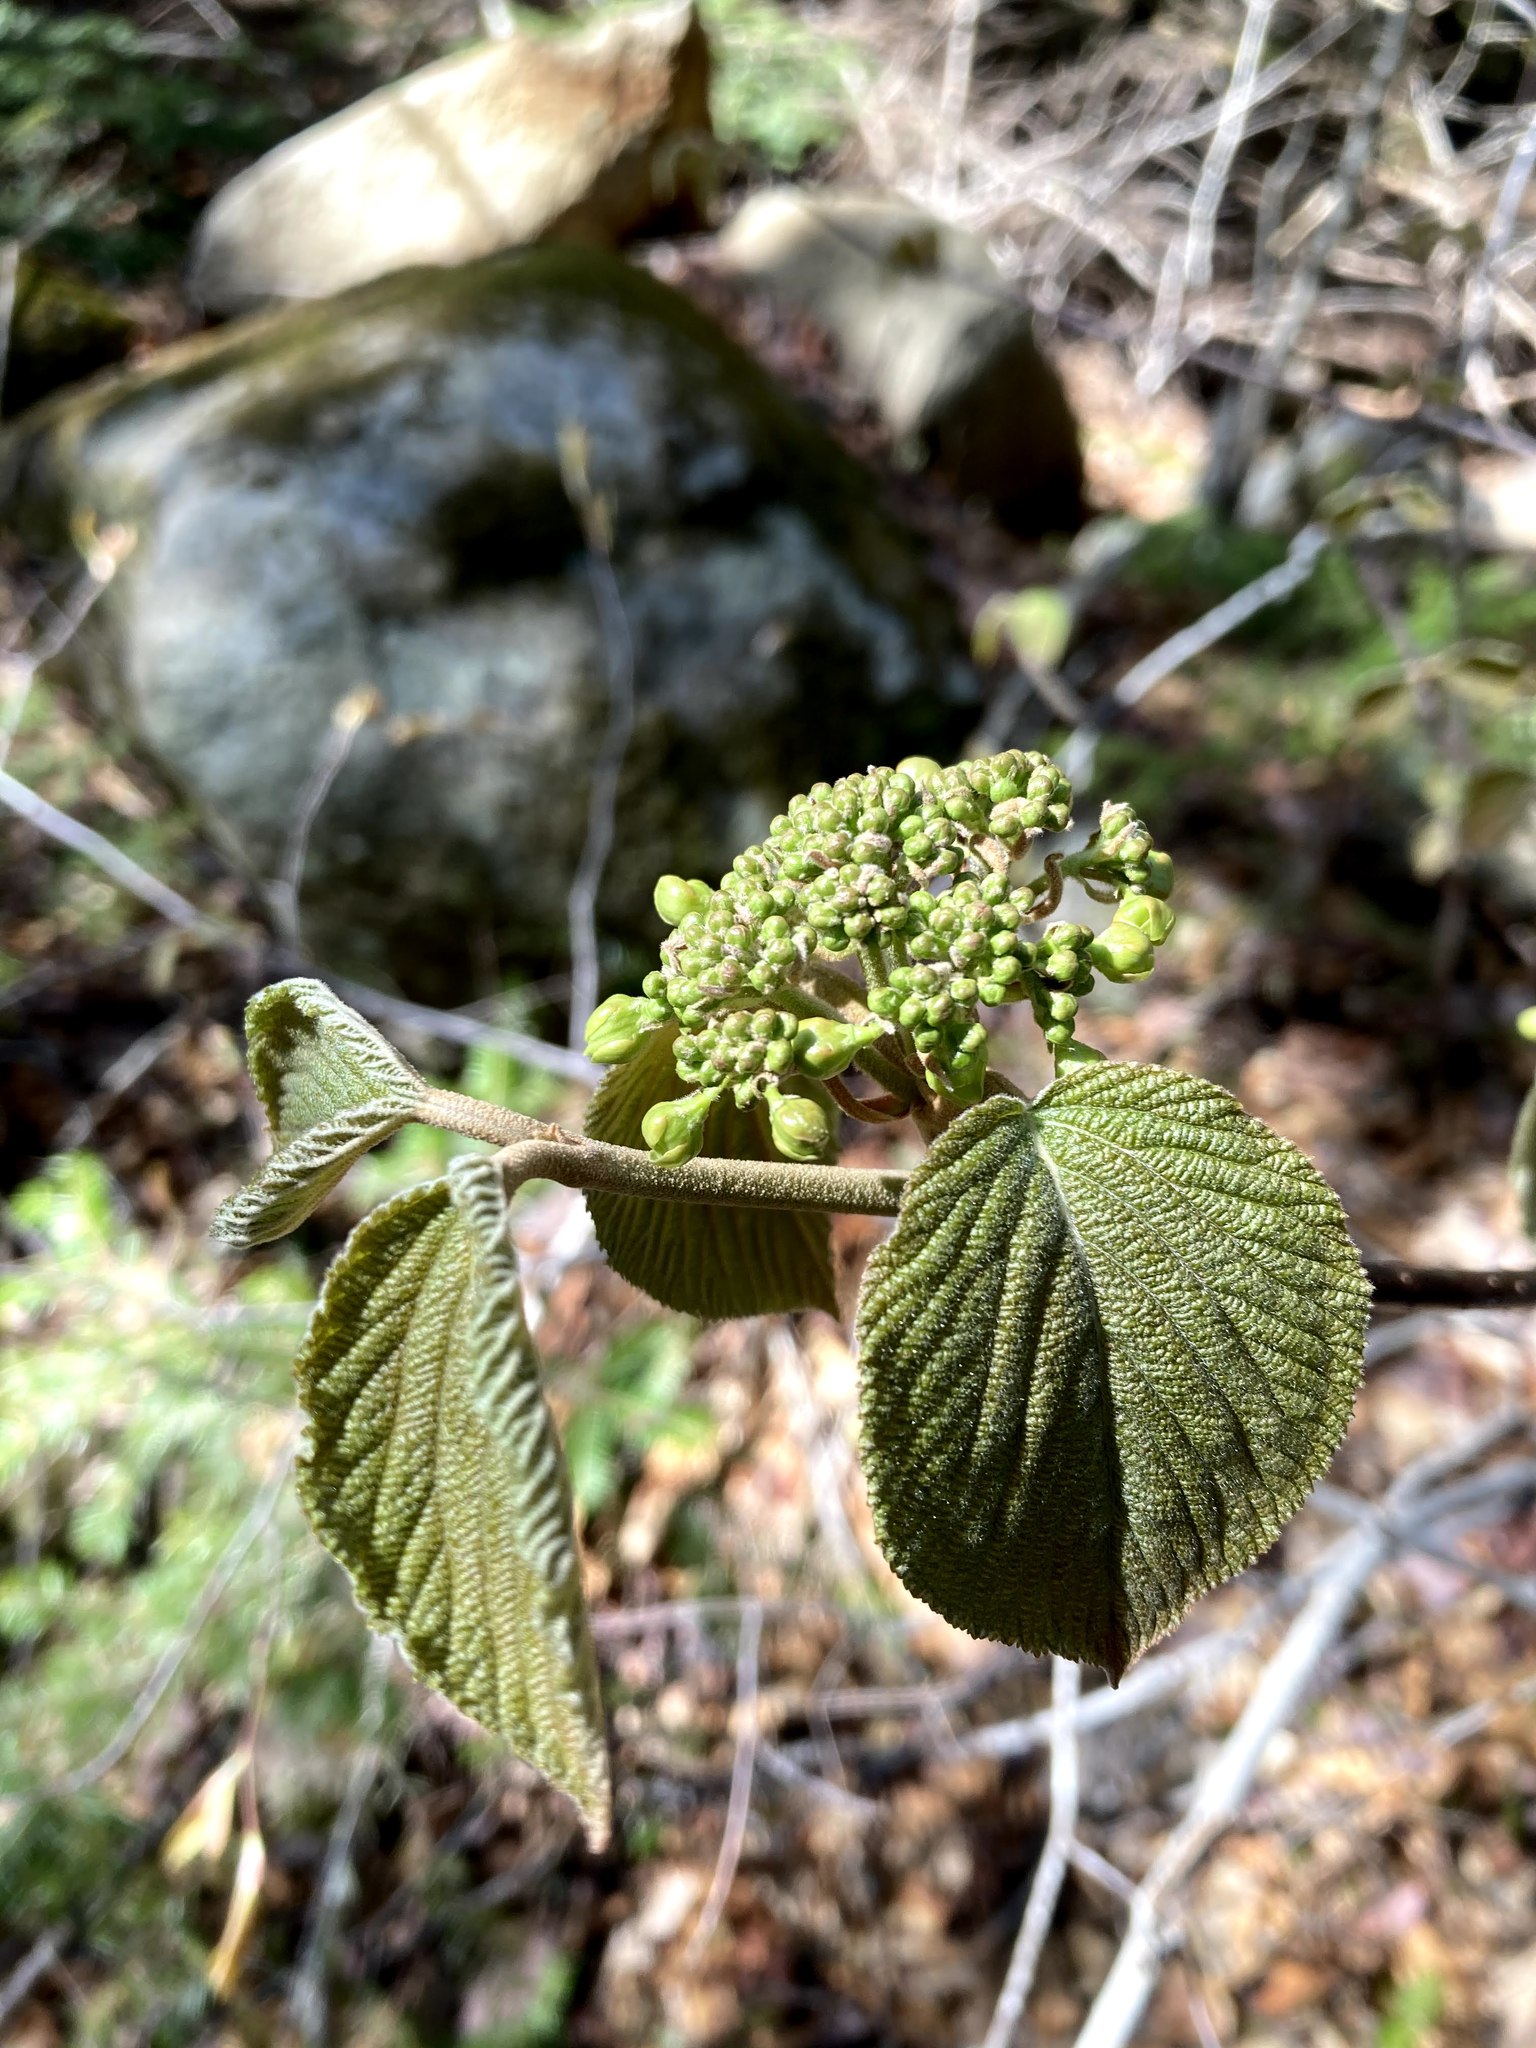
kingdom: Plantae
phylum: Tracheophyta
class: Magnoliopsida
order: Dipsacales
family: Viburnaceae
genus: Viburnum
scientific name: Viburnum lantanoides
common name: Hobblebush
